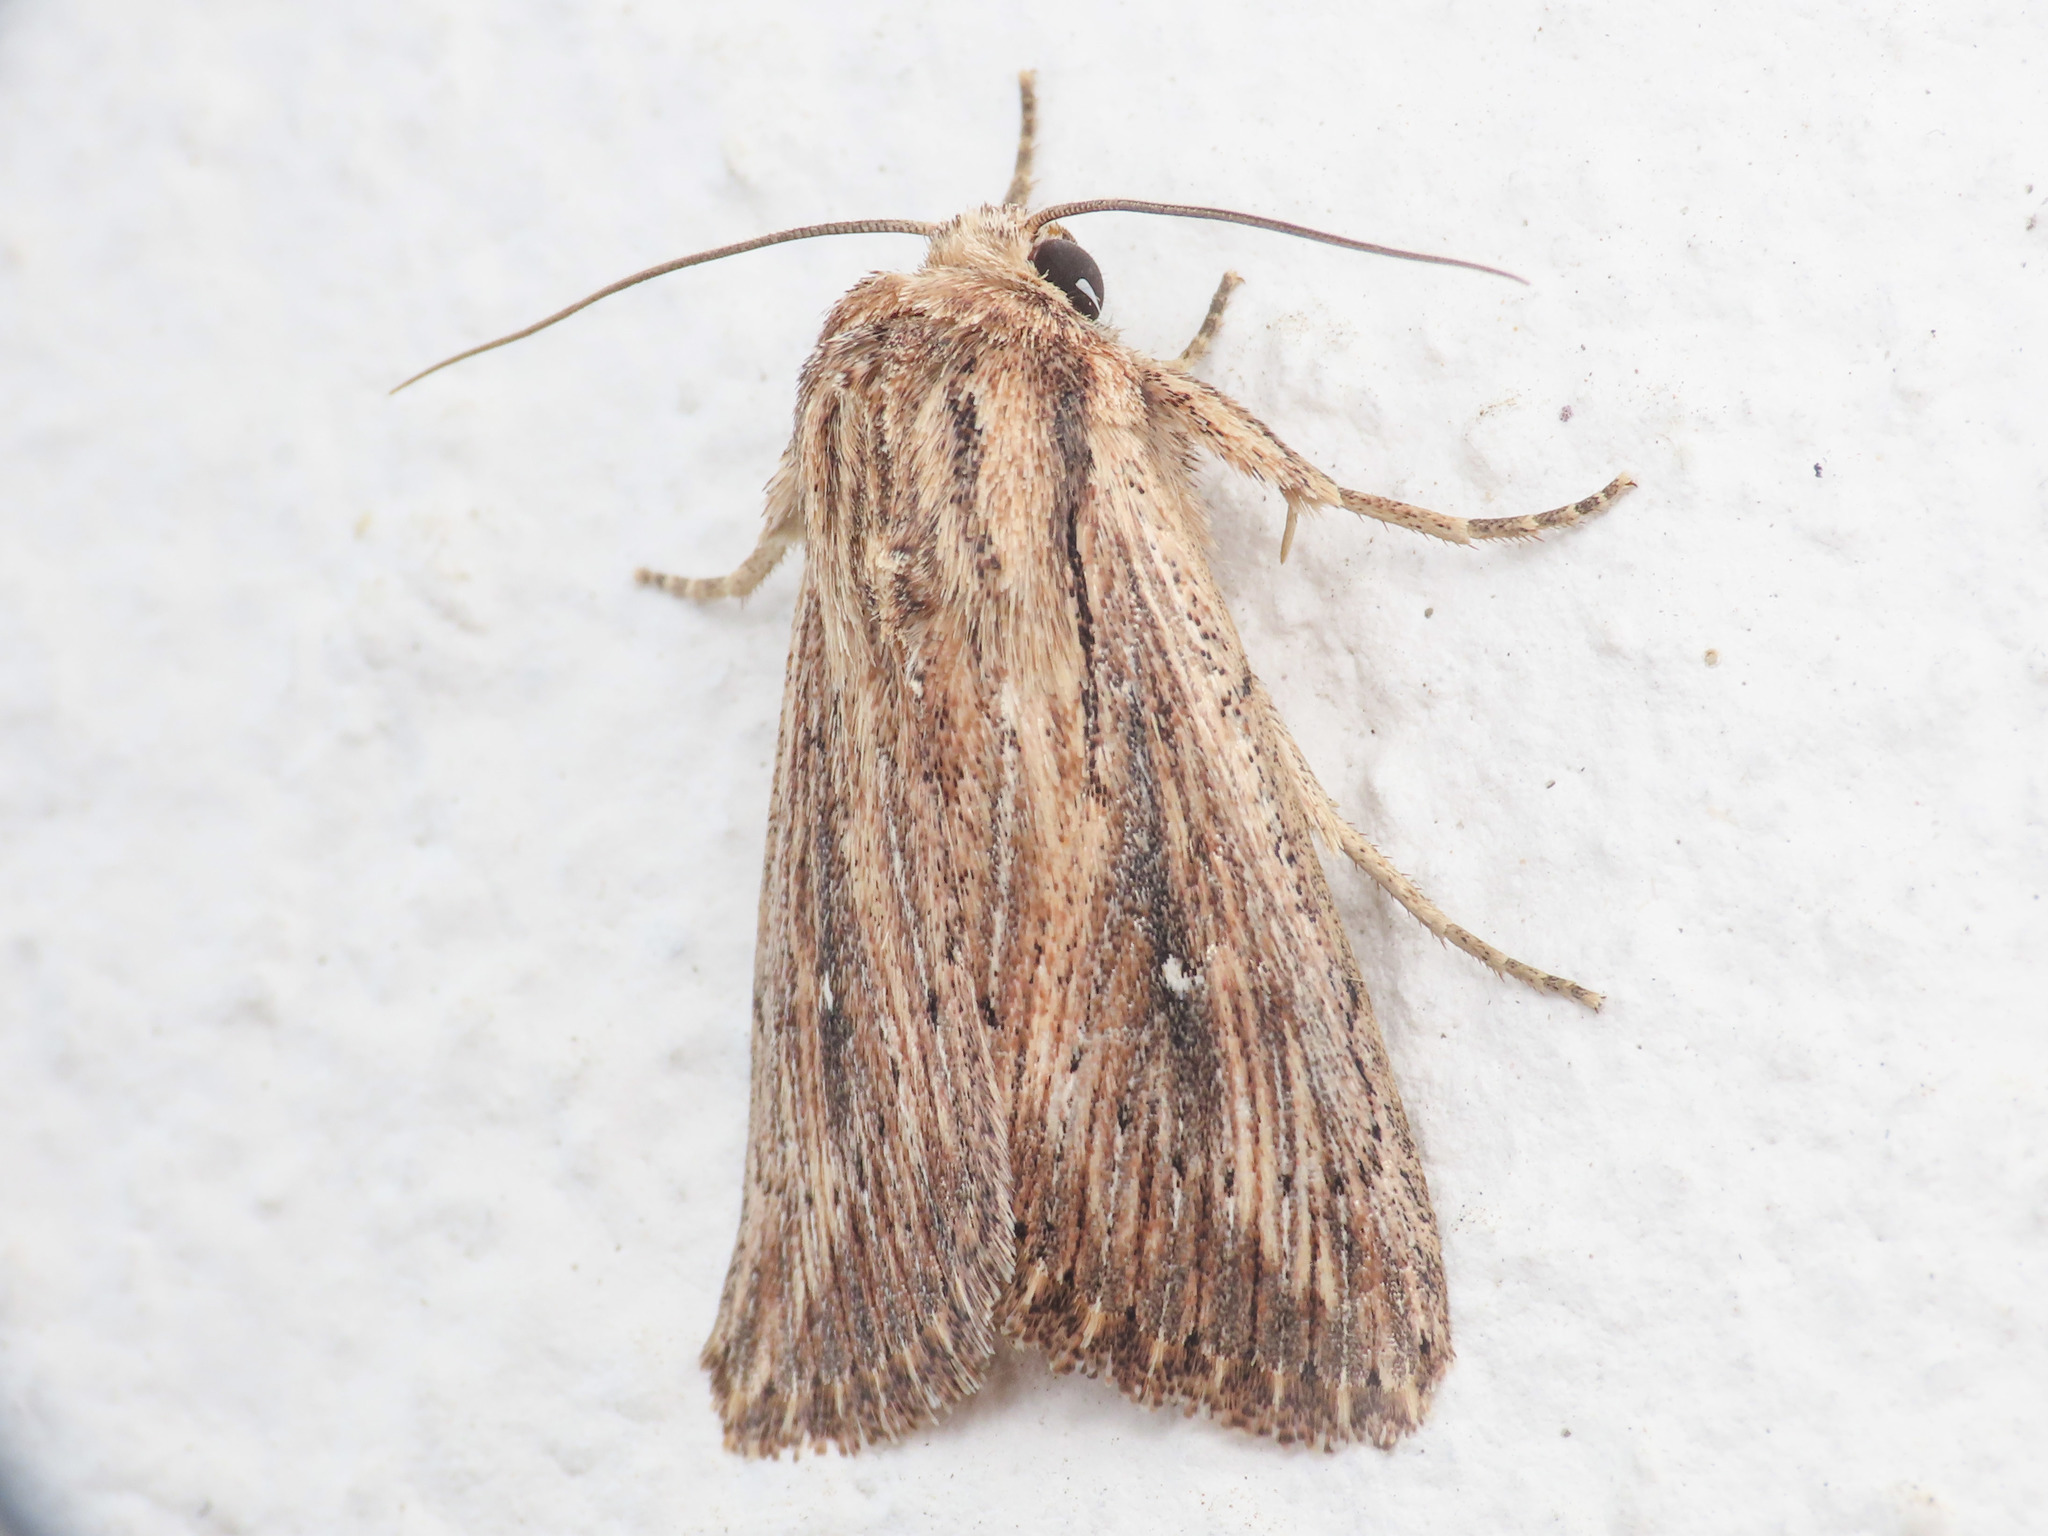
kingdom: Animalia
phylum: Arthropoda
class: Insecta
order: Lepidoptera
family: Noctuidae
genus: Leucania
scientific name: Leucania putrescens
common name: Devonshire wainscot
